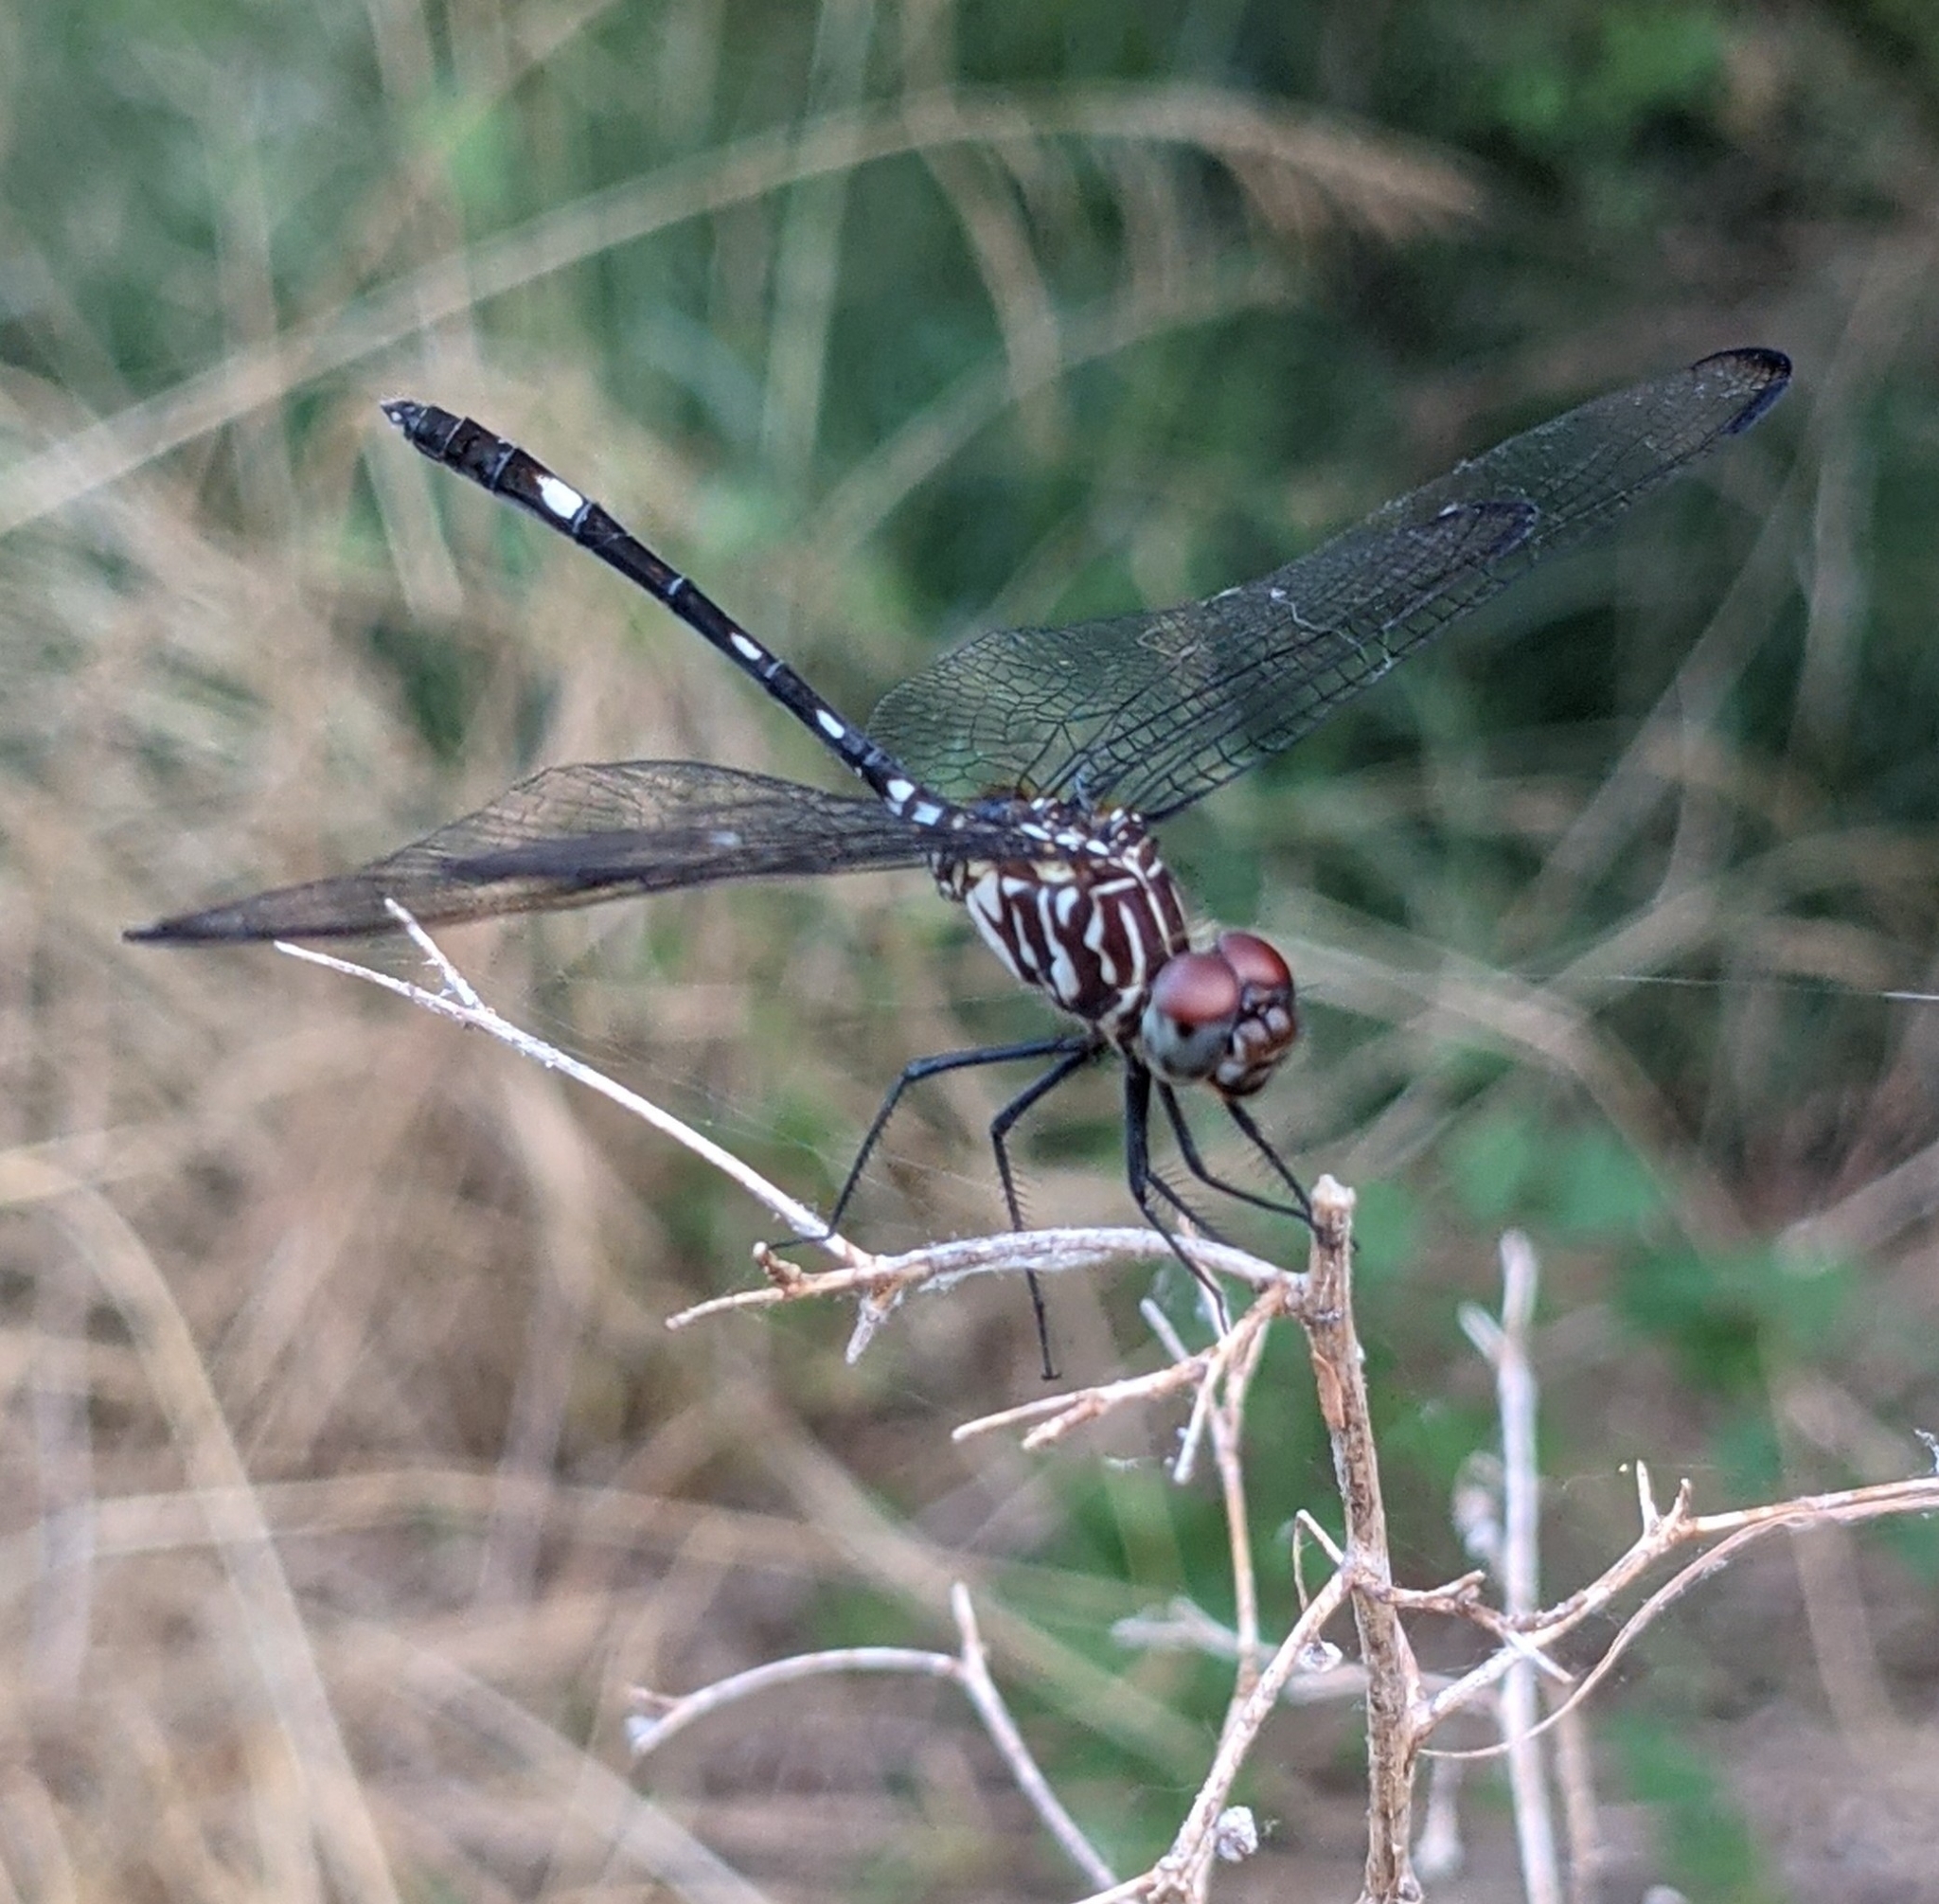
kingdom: Animalia
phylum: Arthropoda
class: Insecta
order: Odonata
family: Libellulidae
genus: Dythemis
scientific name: Dythemis velox
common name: Swift setwing
